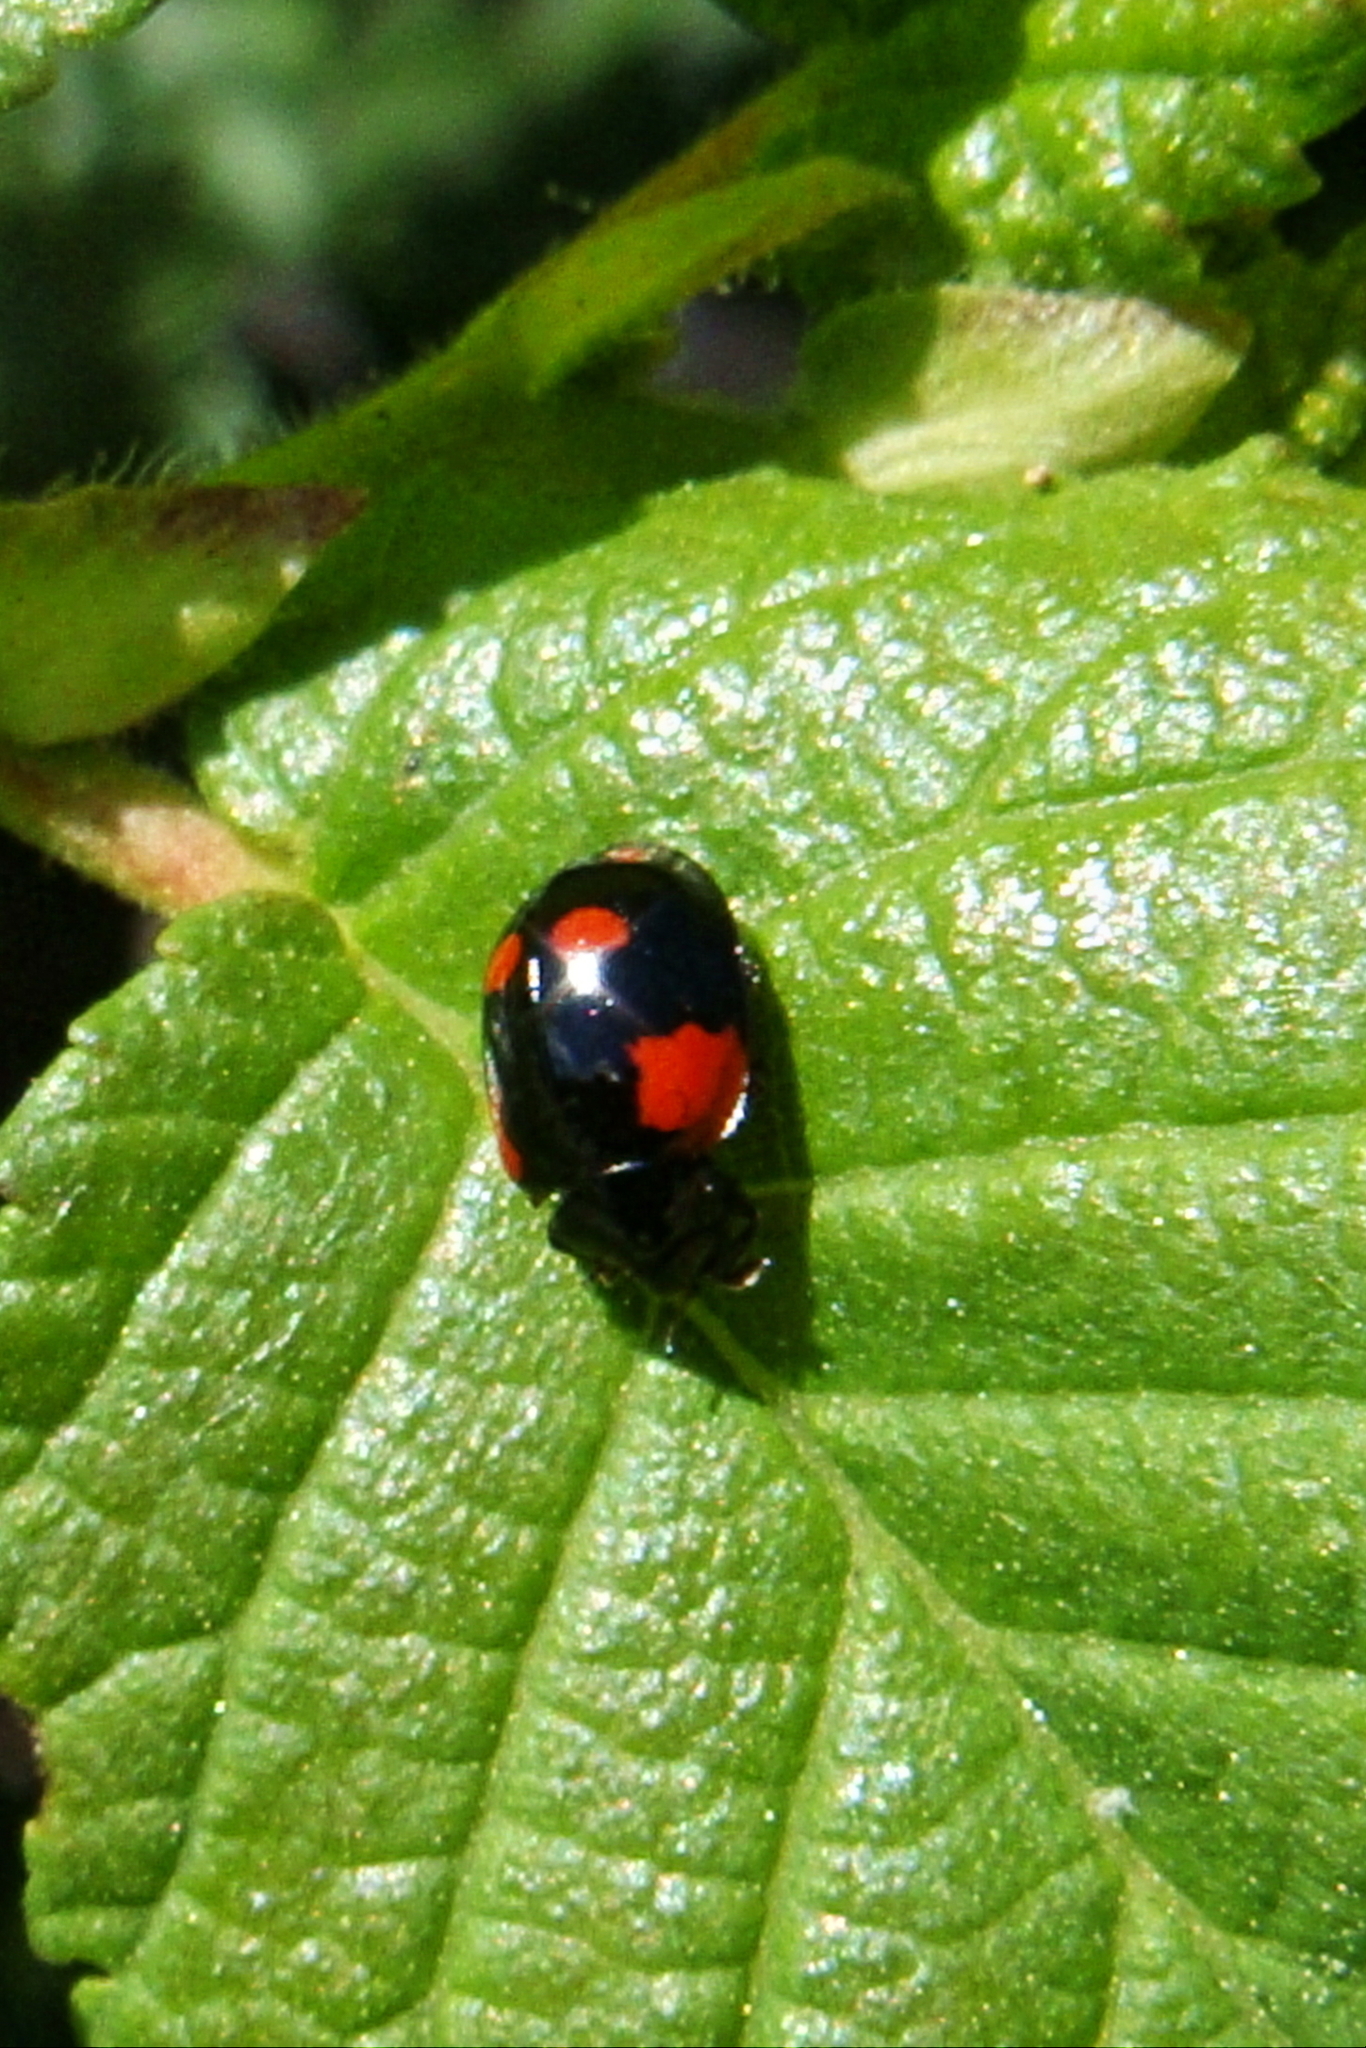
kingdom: Animalia
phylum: Arthropoda
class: Insecta
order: Coleoptera
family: Coccinellidae
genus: Harmonia
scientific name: Harmonia axyridis
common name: Harlequin ladybird
